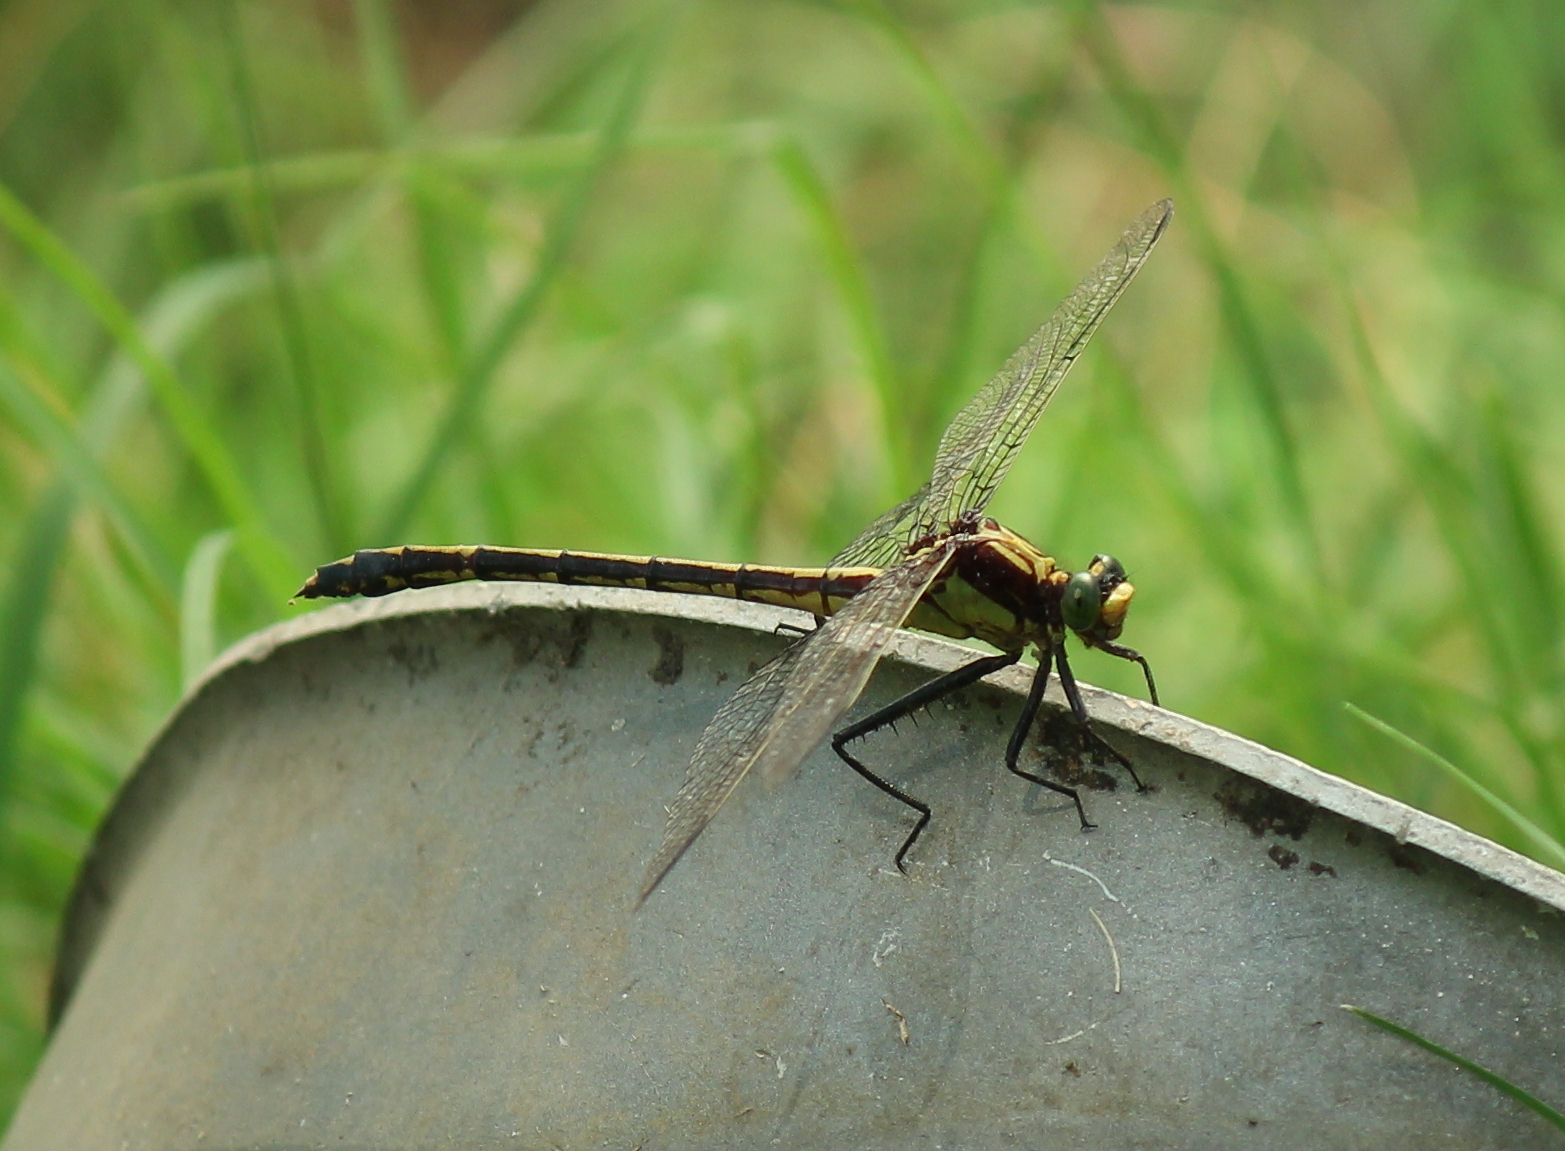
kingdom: Animalia
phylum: Arthropoda
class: Insecta
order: Odonata
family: Gomphidae
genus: Dromogomphus
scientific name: Dromogomphus spinosus
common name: Black-shouldered spinyleg
